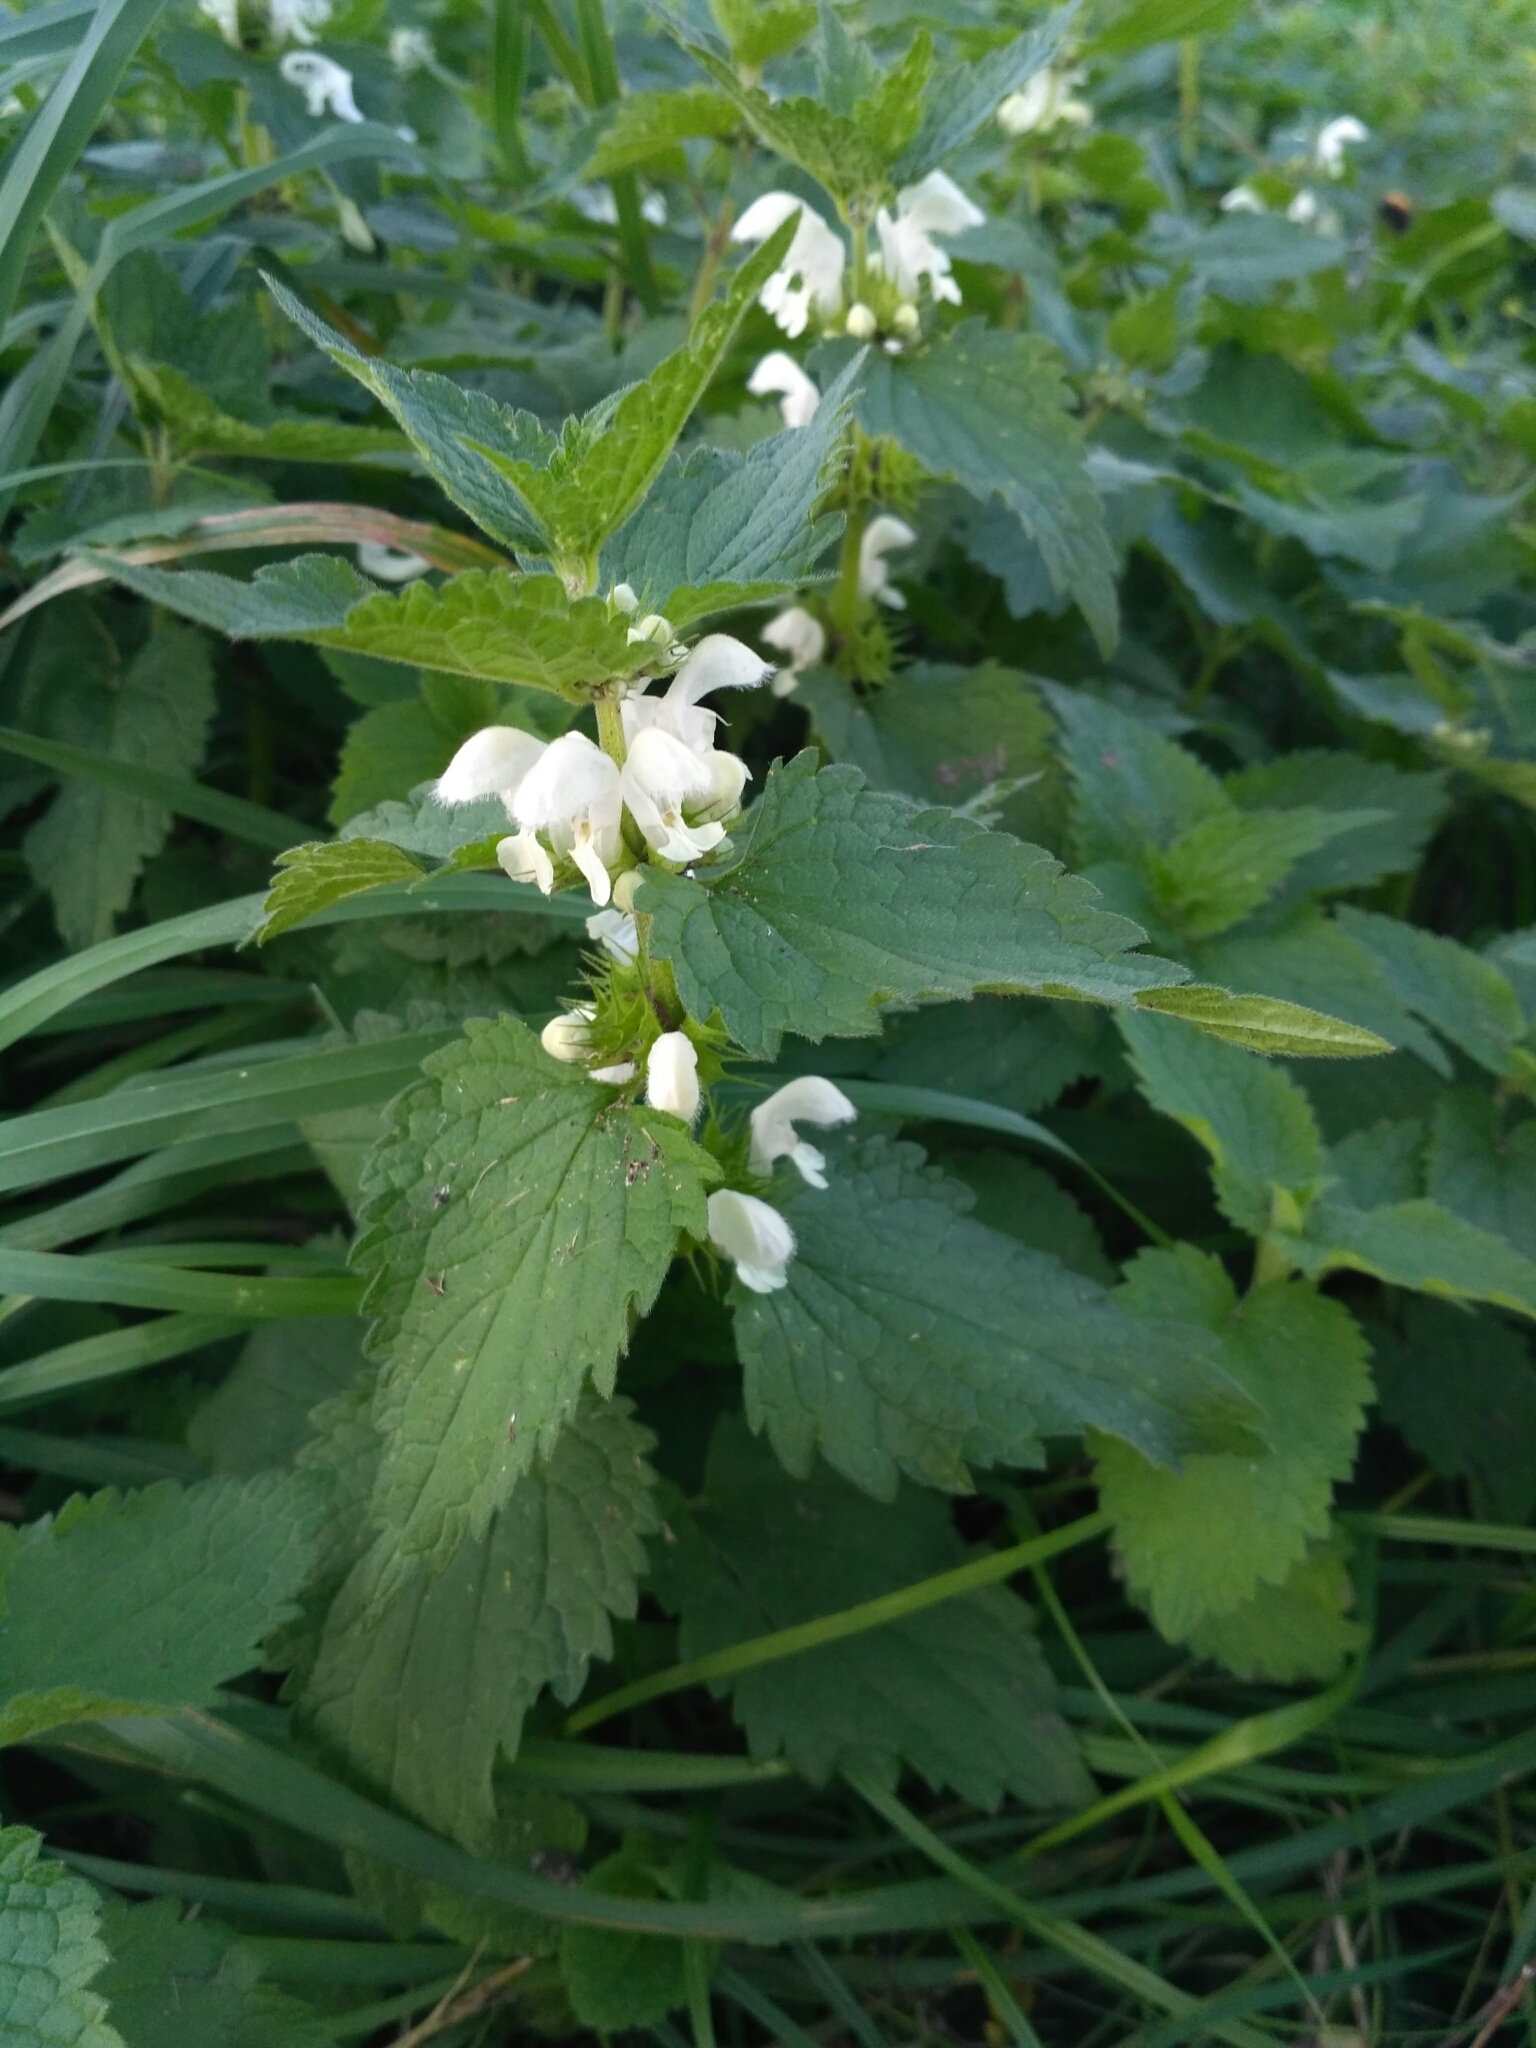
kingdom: Plantae
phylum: Tracheophyta
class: Magnoliopsida
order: Lamiales
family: Lamiaceae
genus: Lamium
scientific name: Lamium album
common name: White dead-nettle
